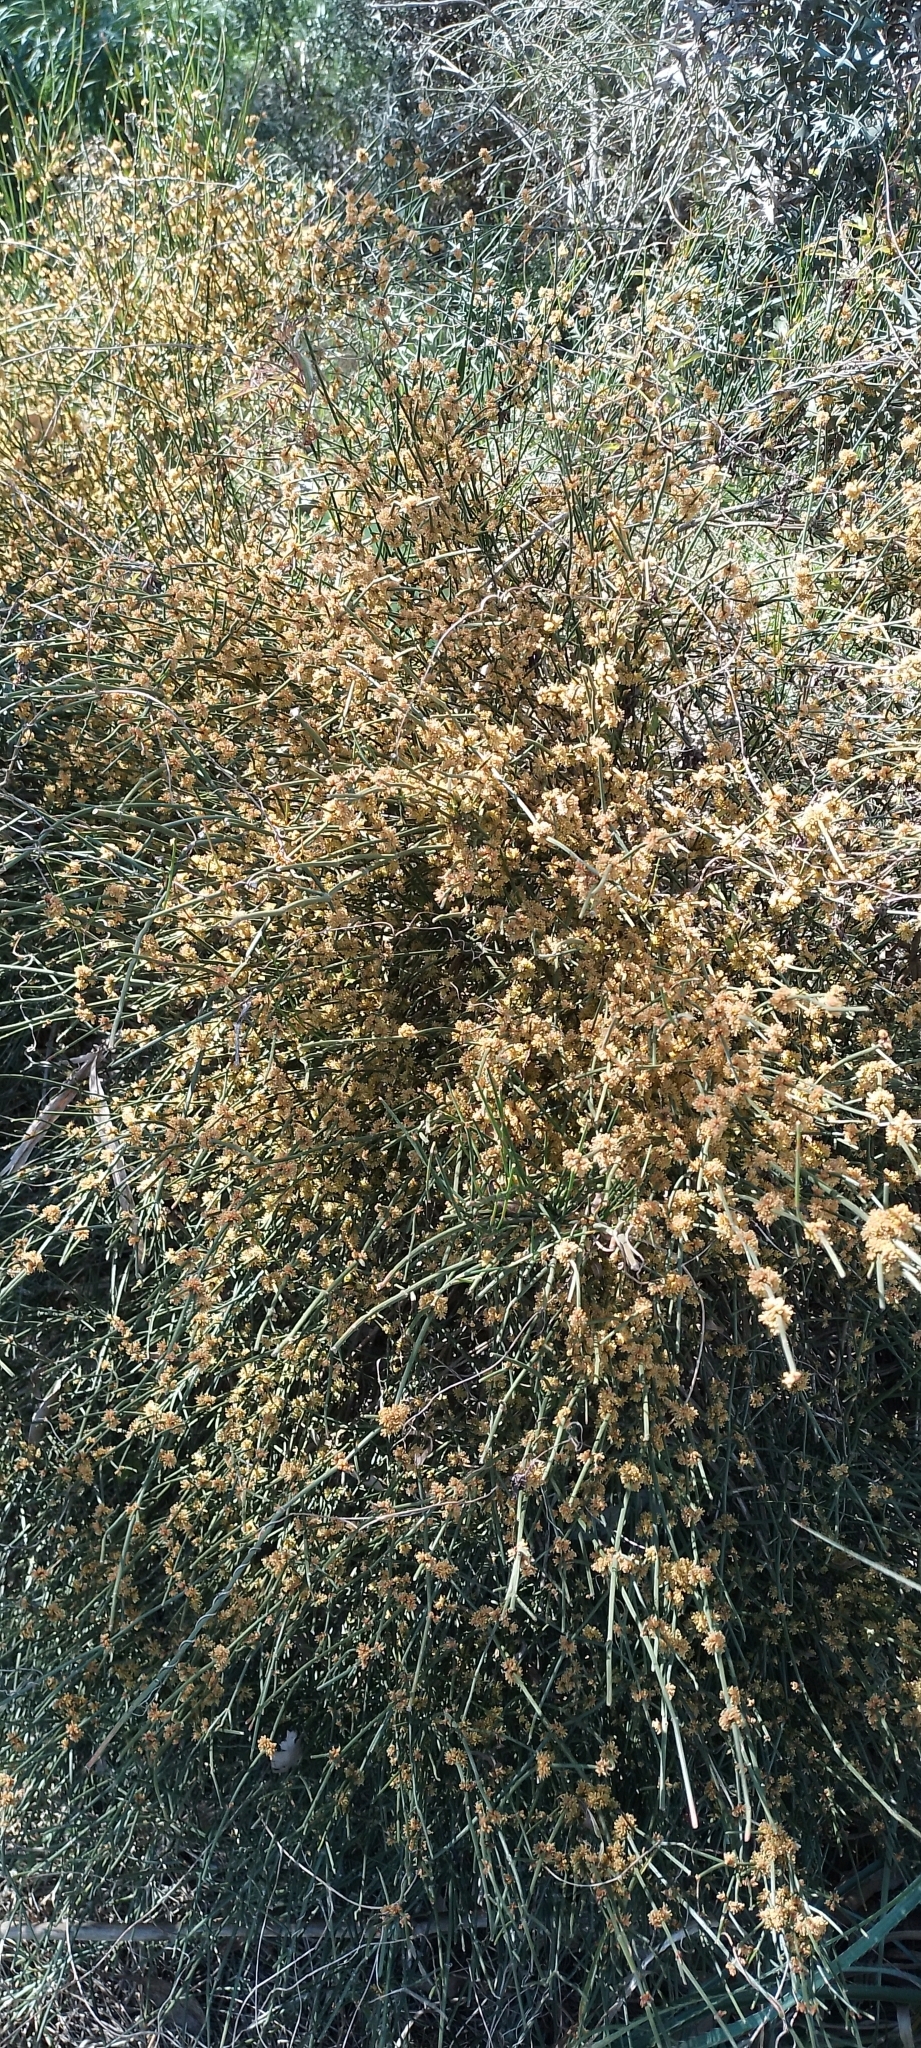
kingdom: Plantae
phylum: Tracheophyta
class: Gnetopsida
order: Ephedrales
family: Ephedraceae
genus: Ephedra
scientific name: Ephedra tweedieana
